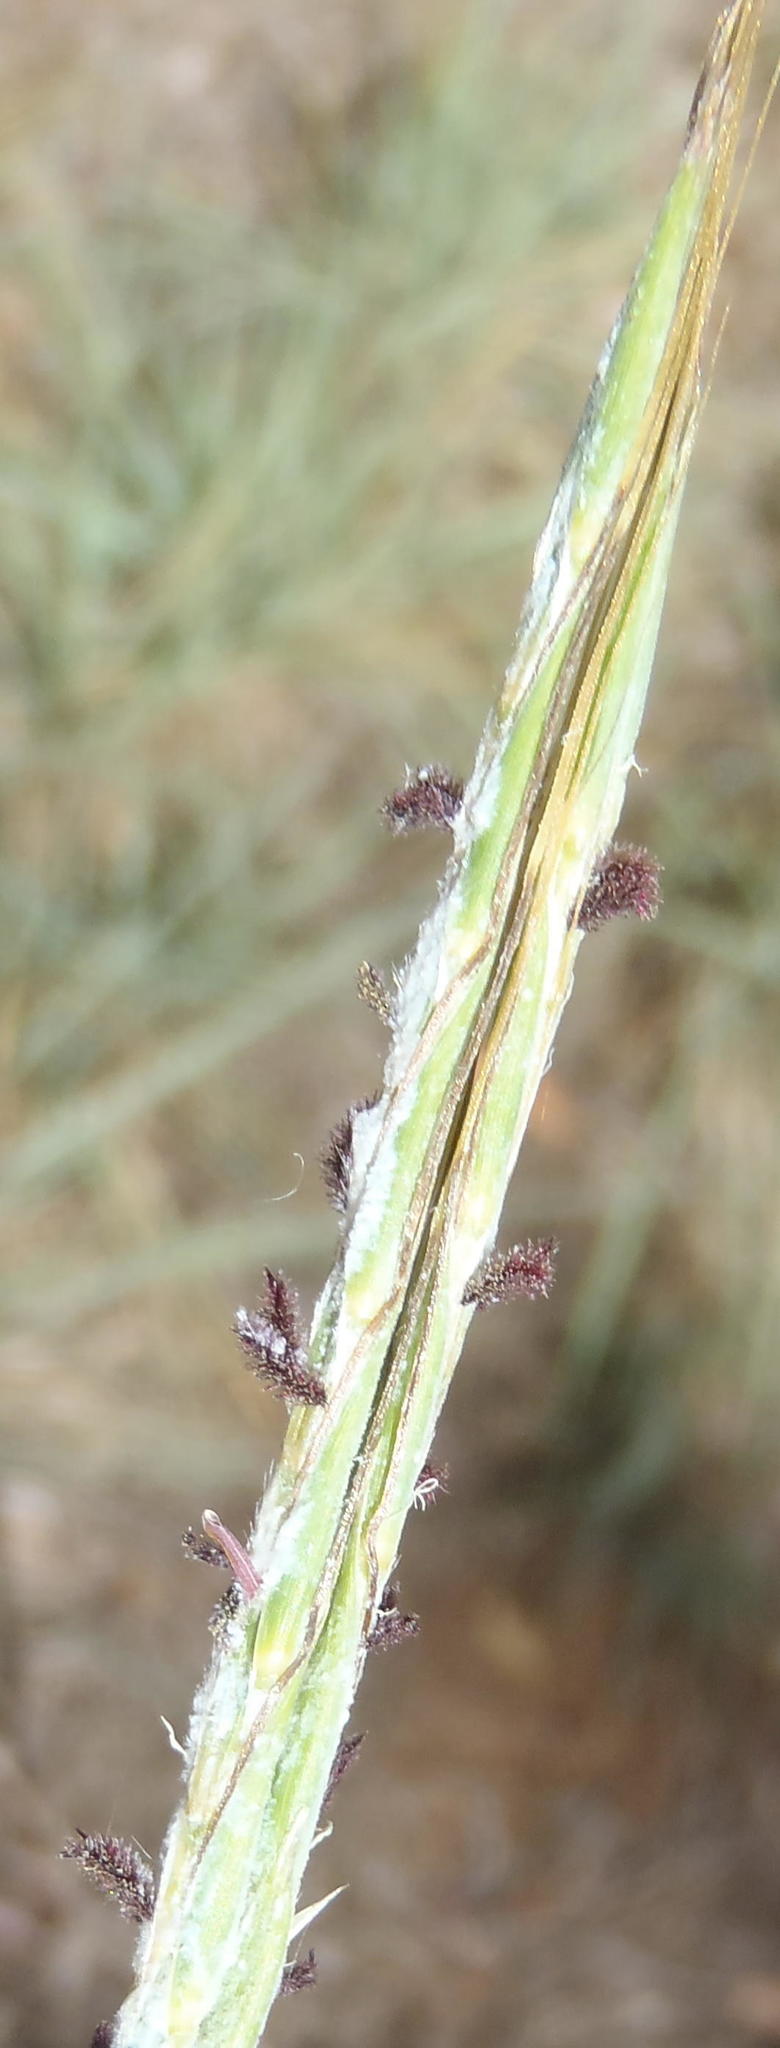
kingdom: Plantae
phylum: Tracheophyta
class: Liliopsida
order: Poales
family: Poaceae
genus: Diheteropogon
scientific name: Diheteropogon amplectens
